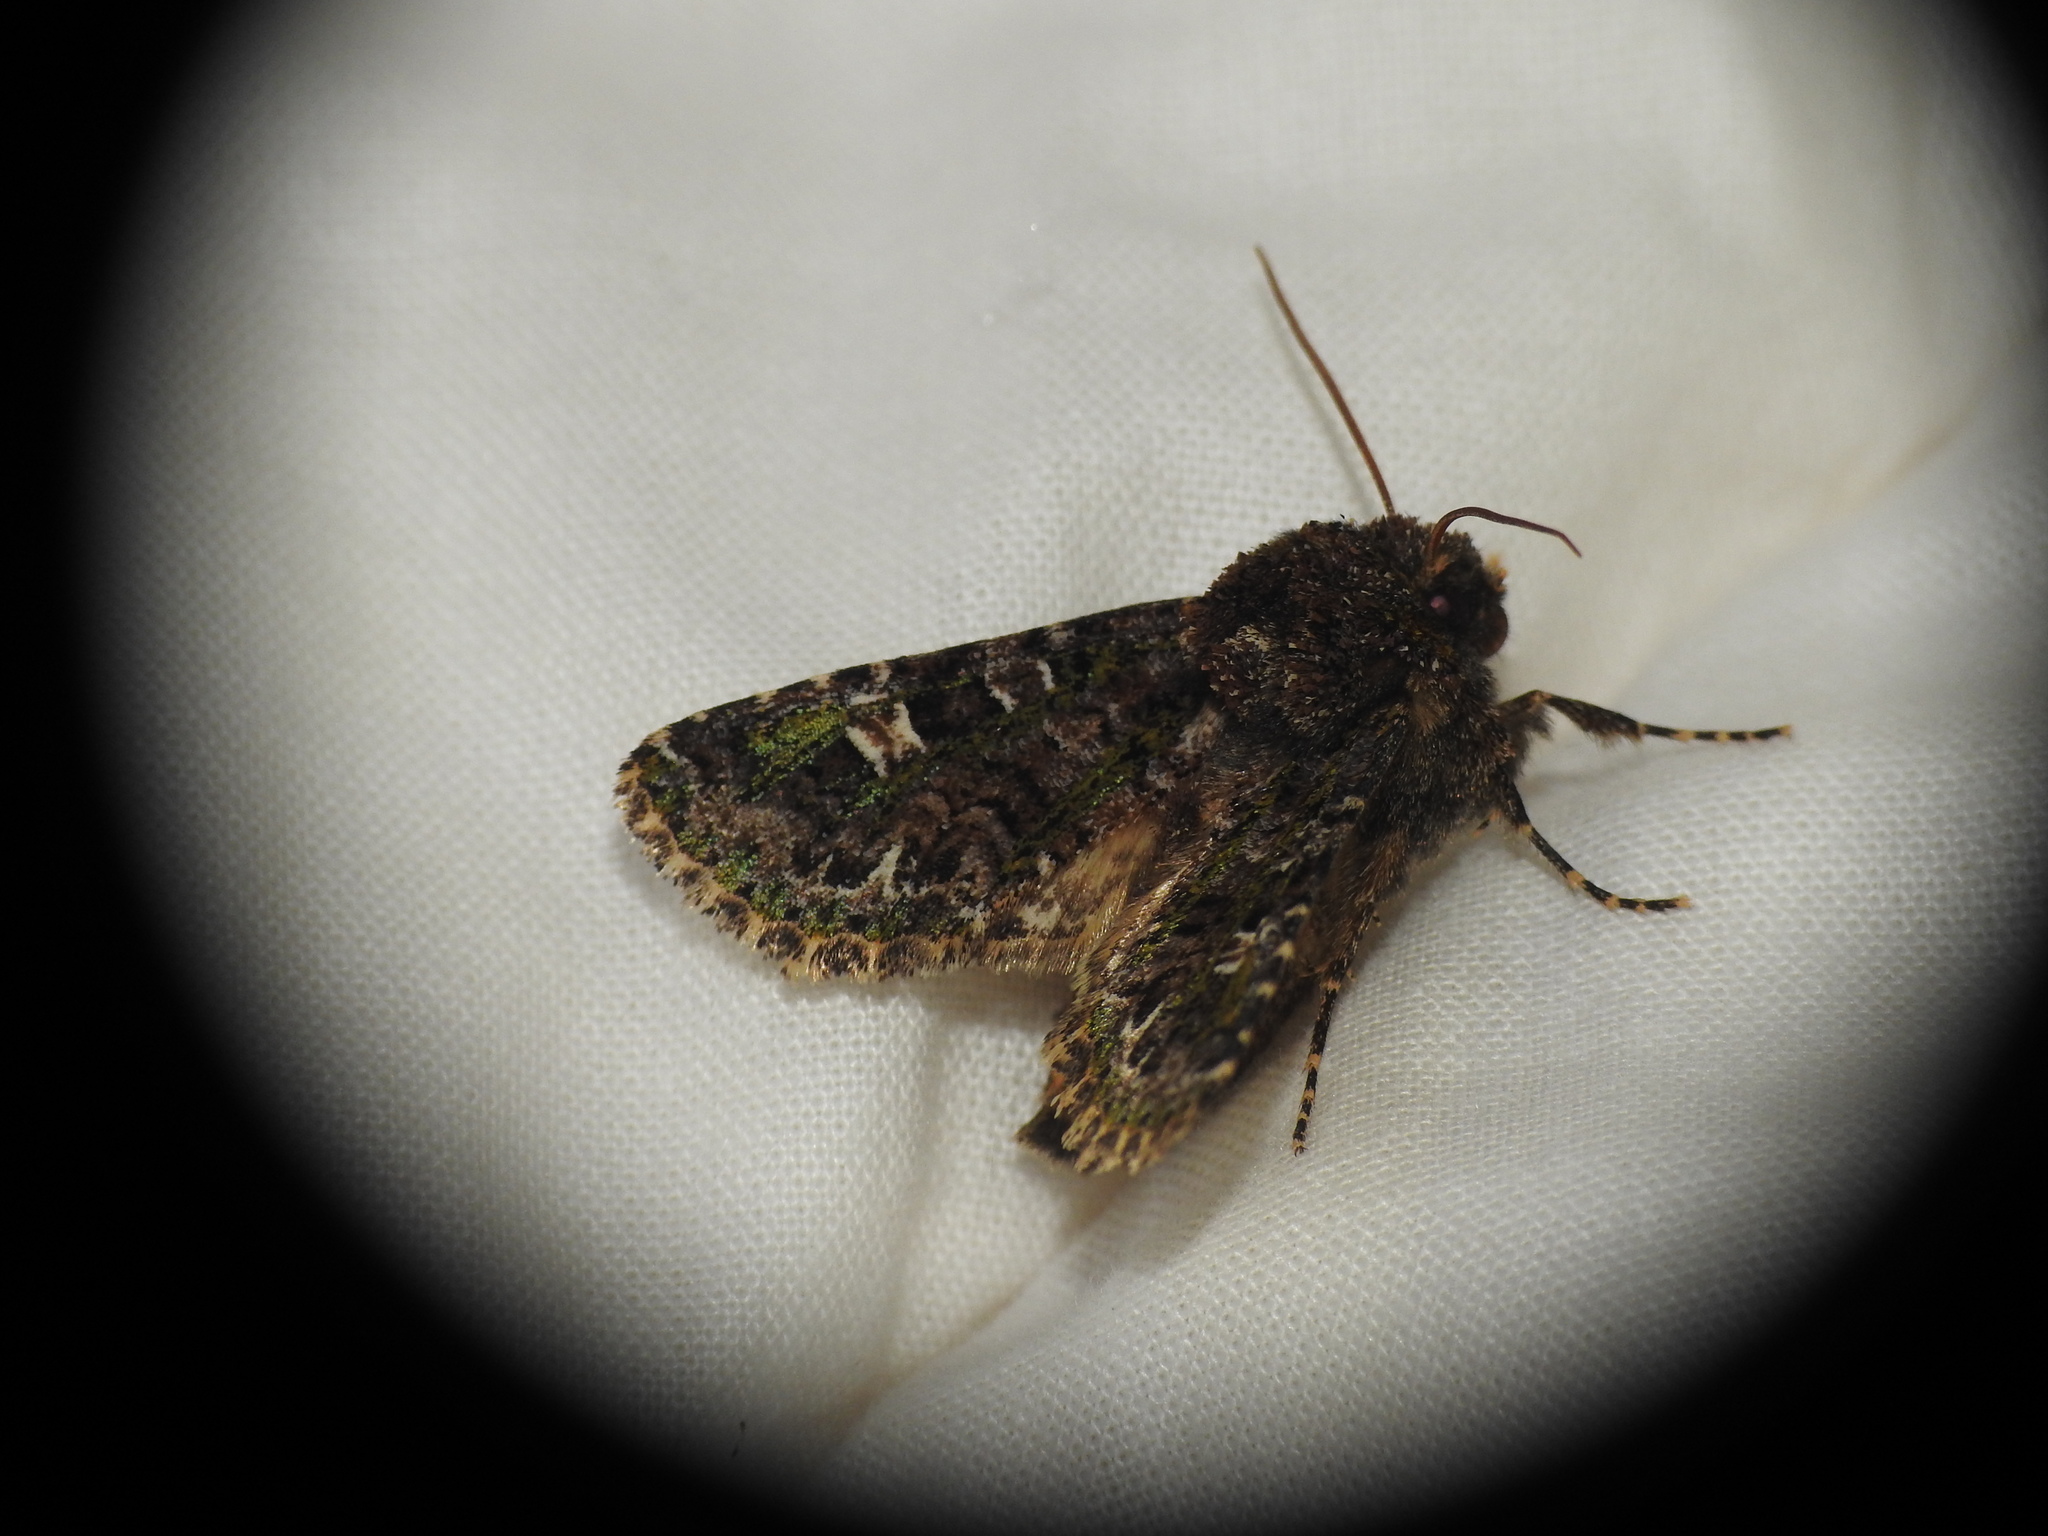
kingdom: Animalia
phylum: Arthropoda
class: Insecta
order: Lepidoptera
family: Noctuidae
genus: Valeria
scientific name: Valeria jaspidea
